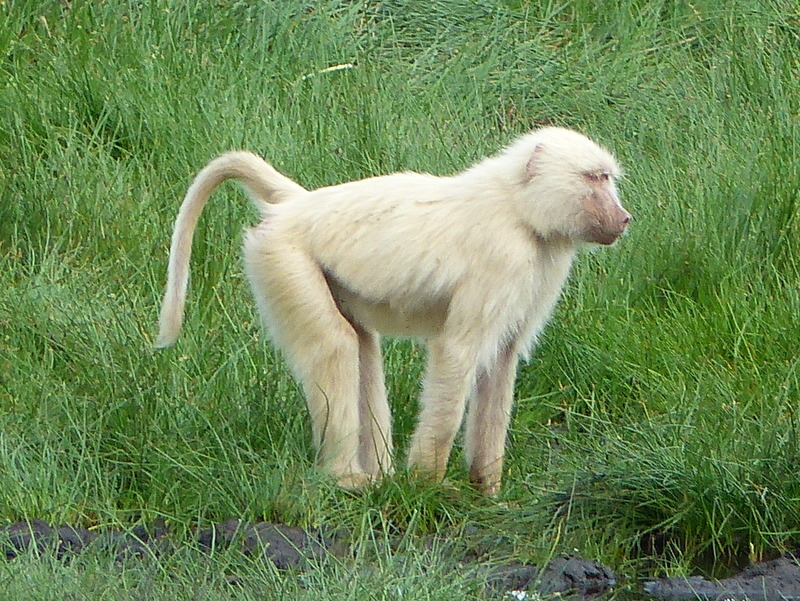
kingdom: Animalia
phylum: Chordata
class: Mammalia
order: Primates
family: Cercopithecidae
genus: Papio
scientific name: Papio anubis
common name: Olive baboon
